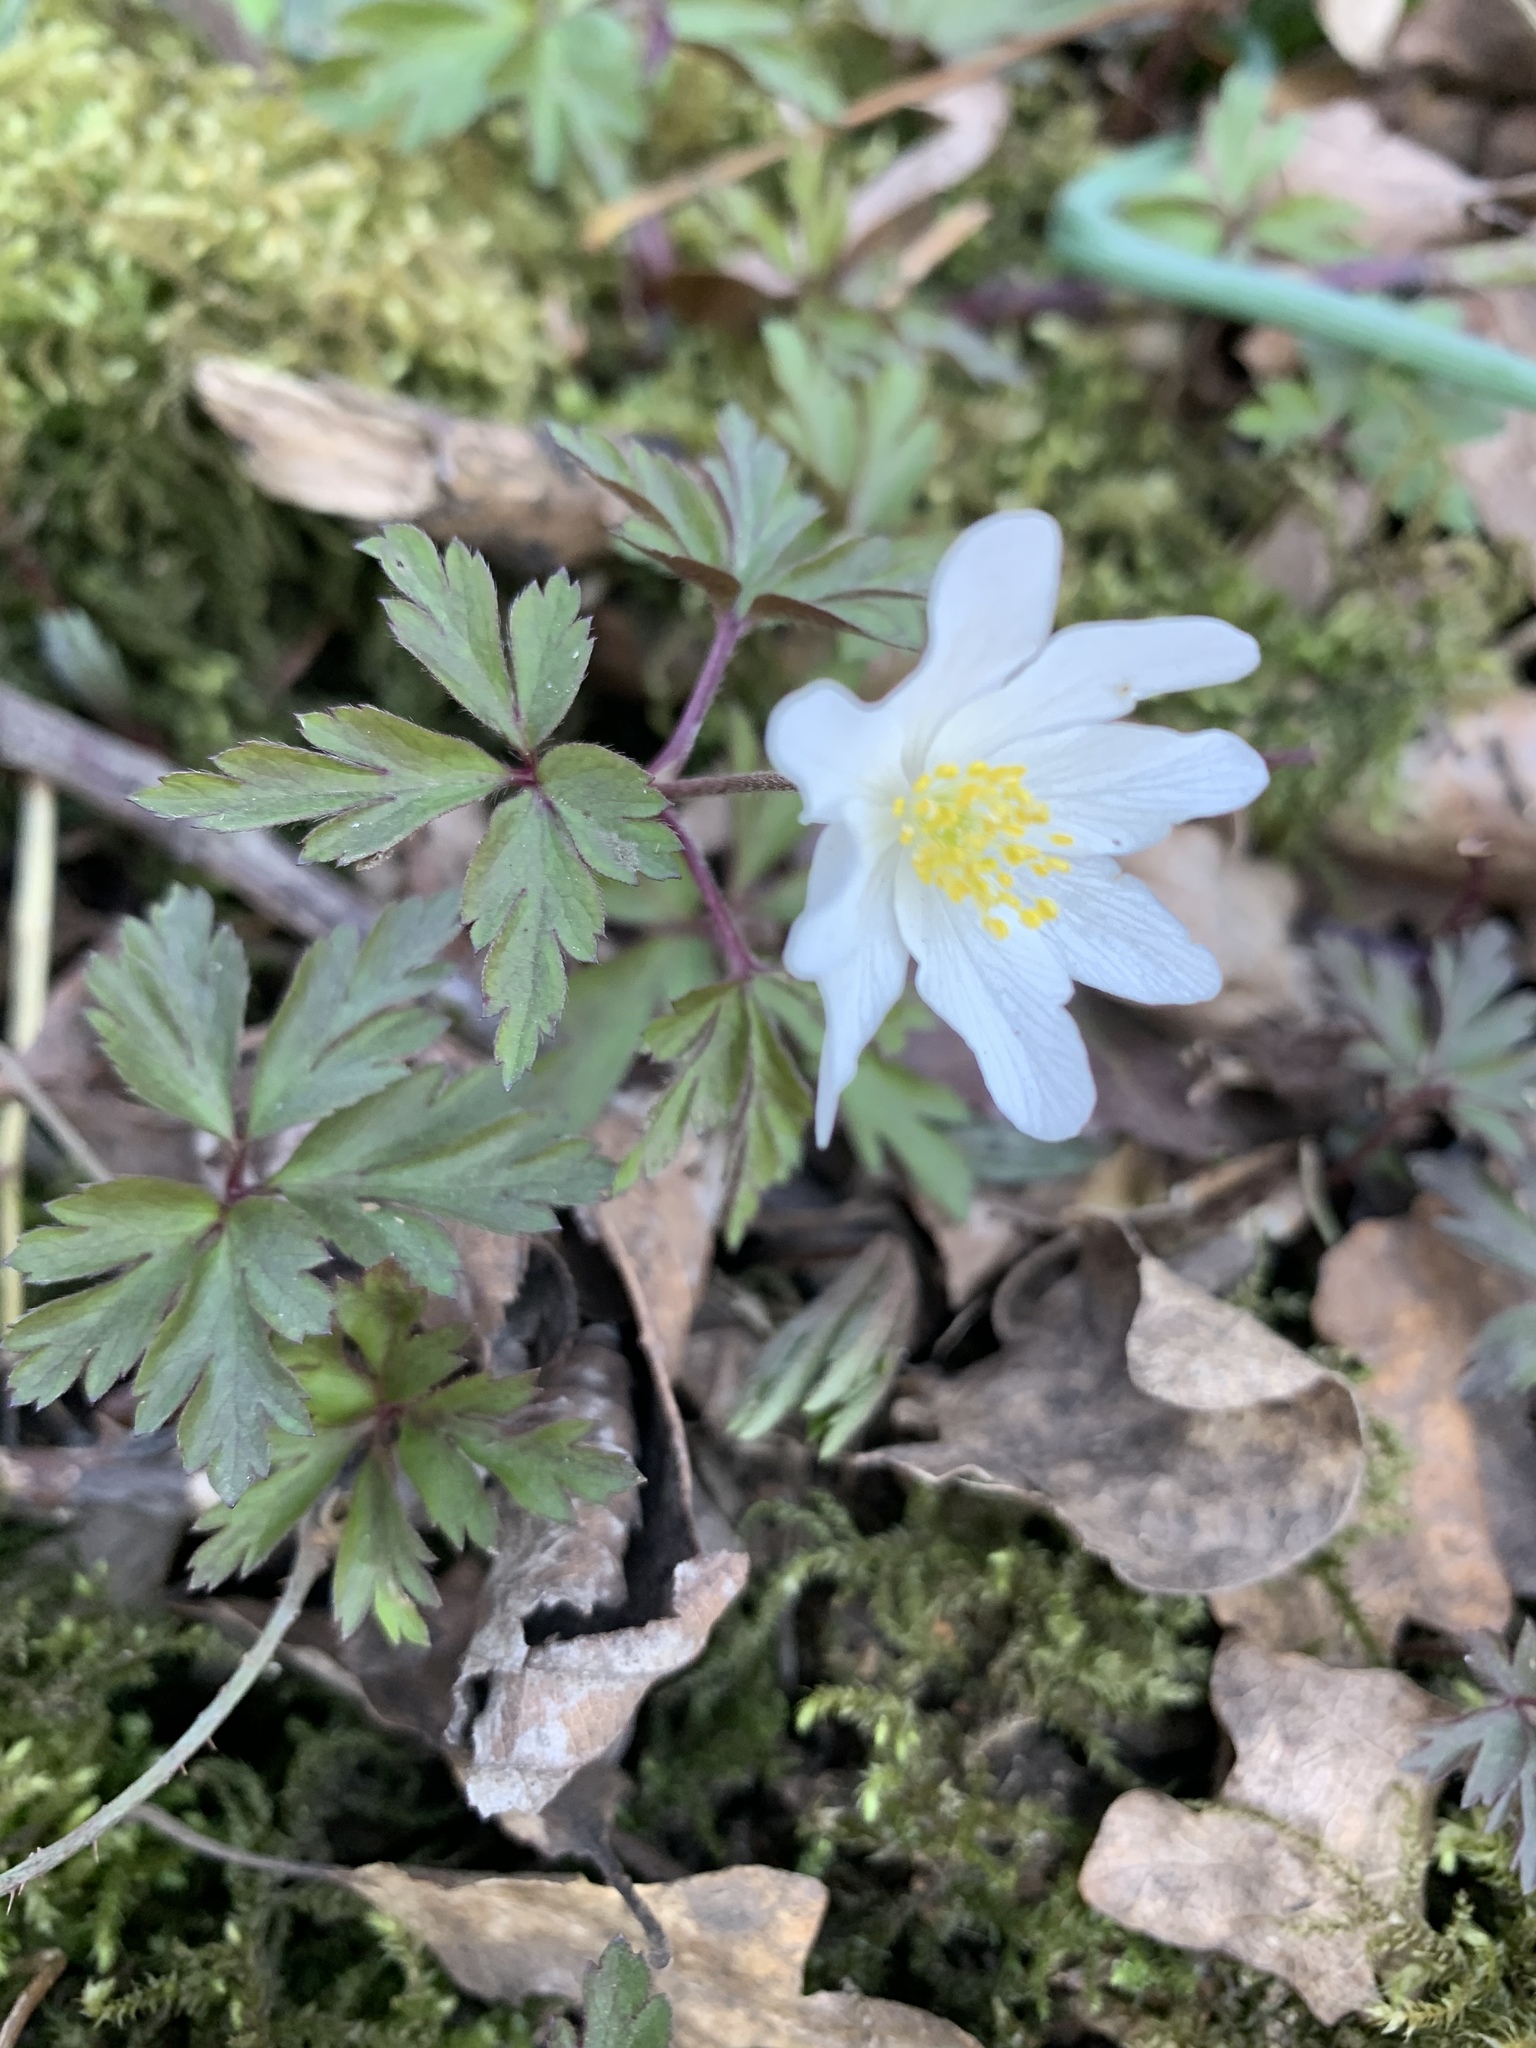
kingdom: Plantae
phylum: Tracheophyta
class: Magnoliopsida
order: Ranunculales
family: Ranunculaceae
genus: Anemone
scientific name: Anemone nemorosa
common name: Wood anemone
